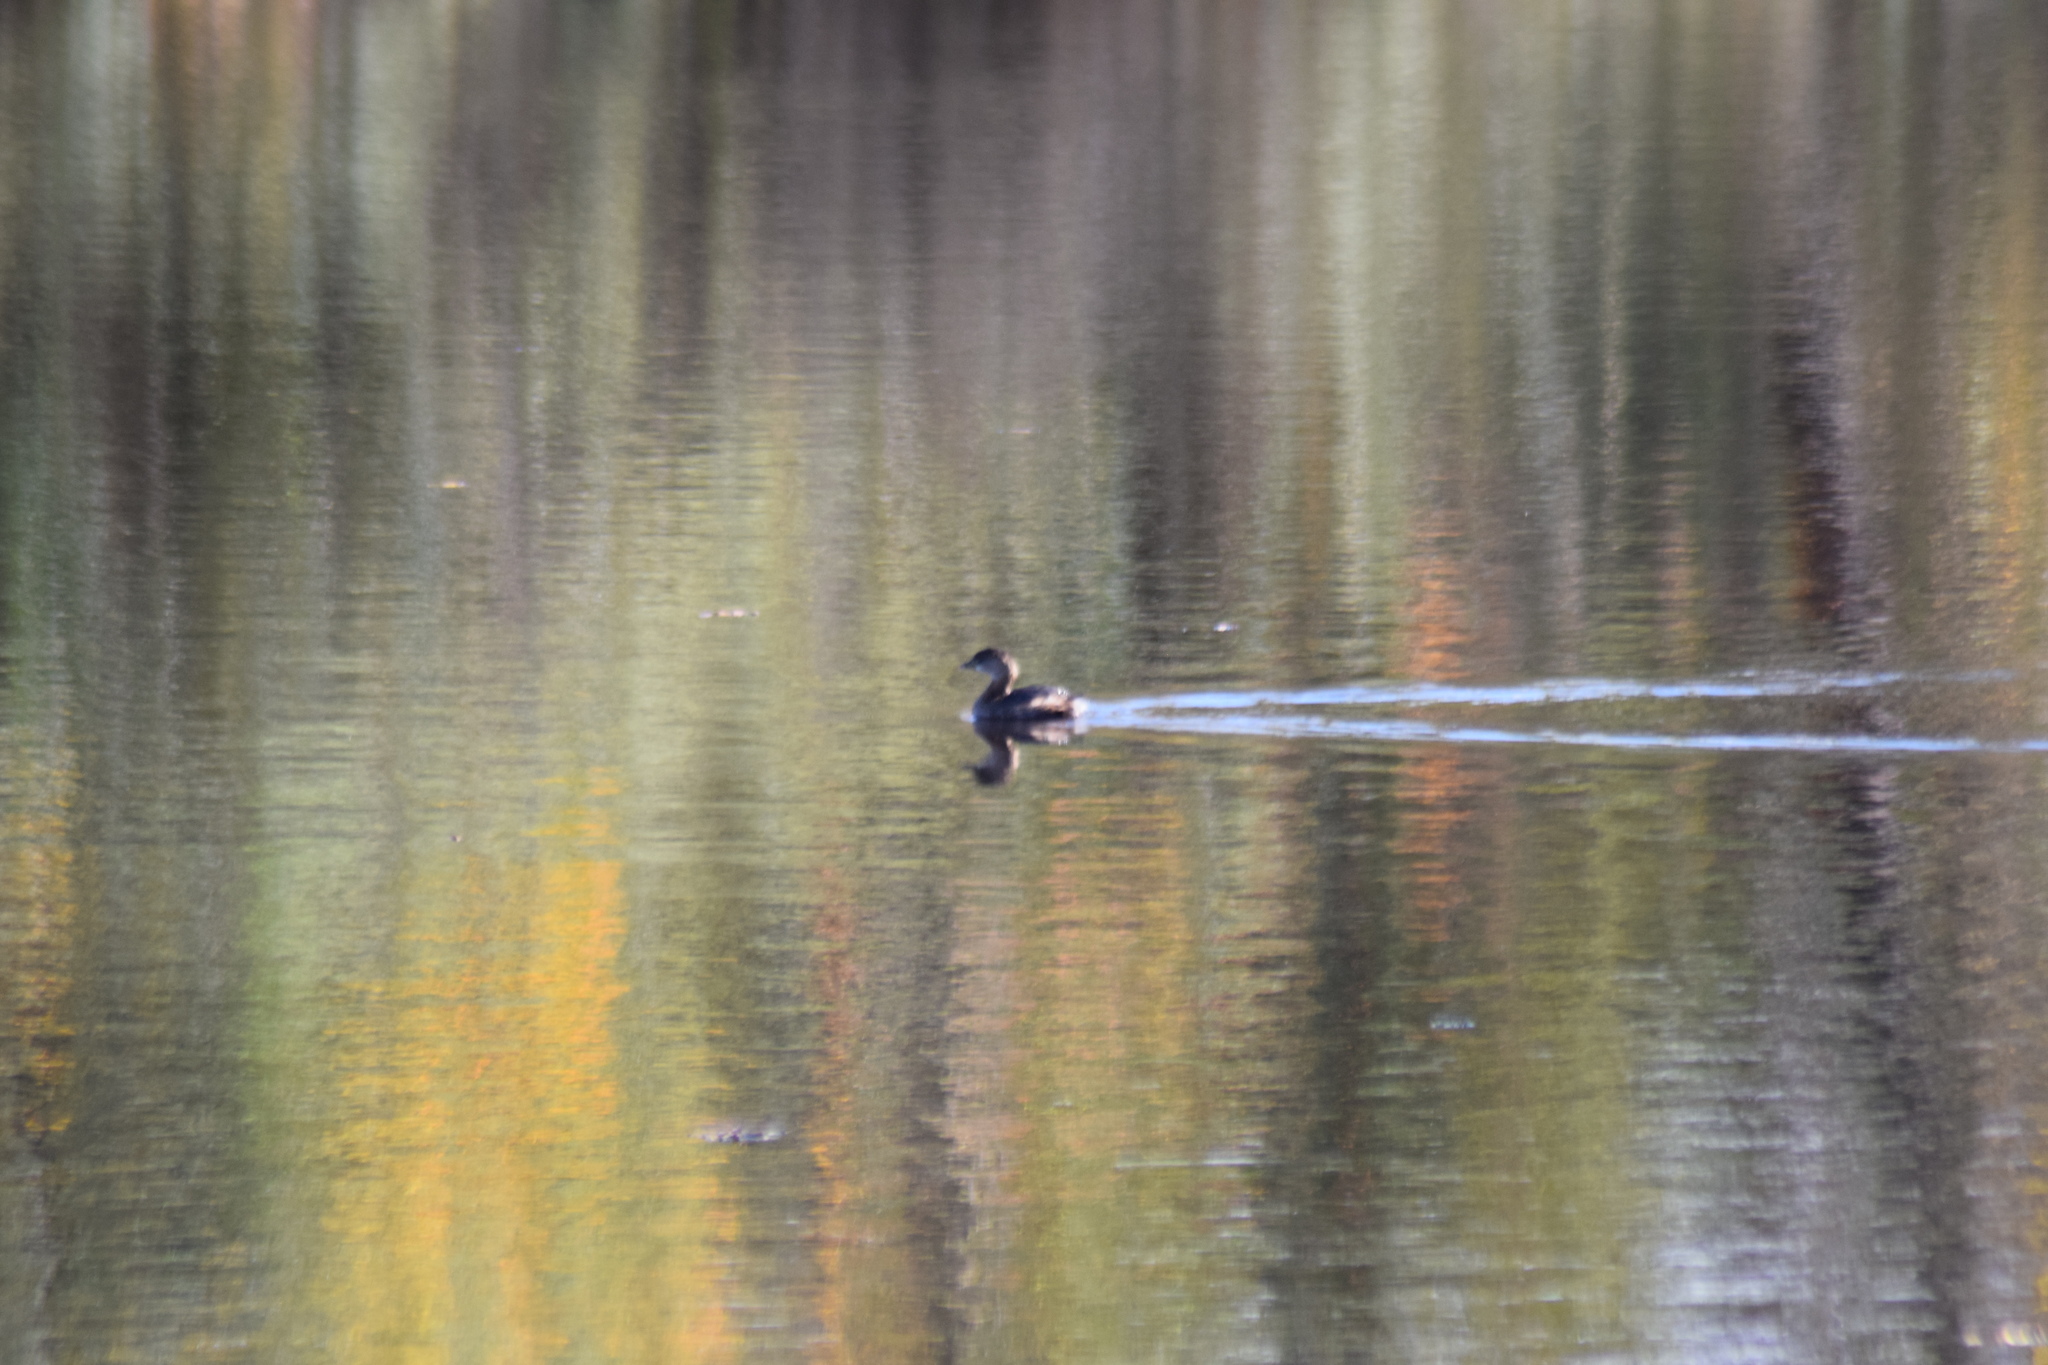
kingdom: Animalia
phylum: Chordata
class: Aves
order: Podicipediformes
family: Podicipedidae
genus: Podilymbus
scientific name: Podilymbus podiceps
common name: Pied-billed grebe
